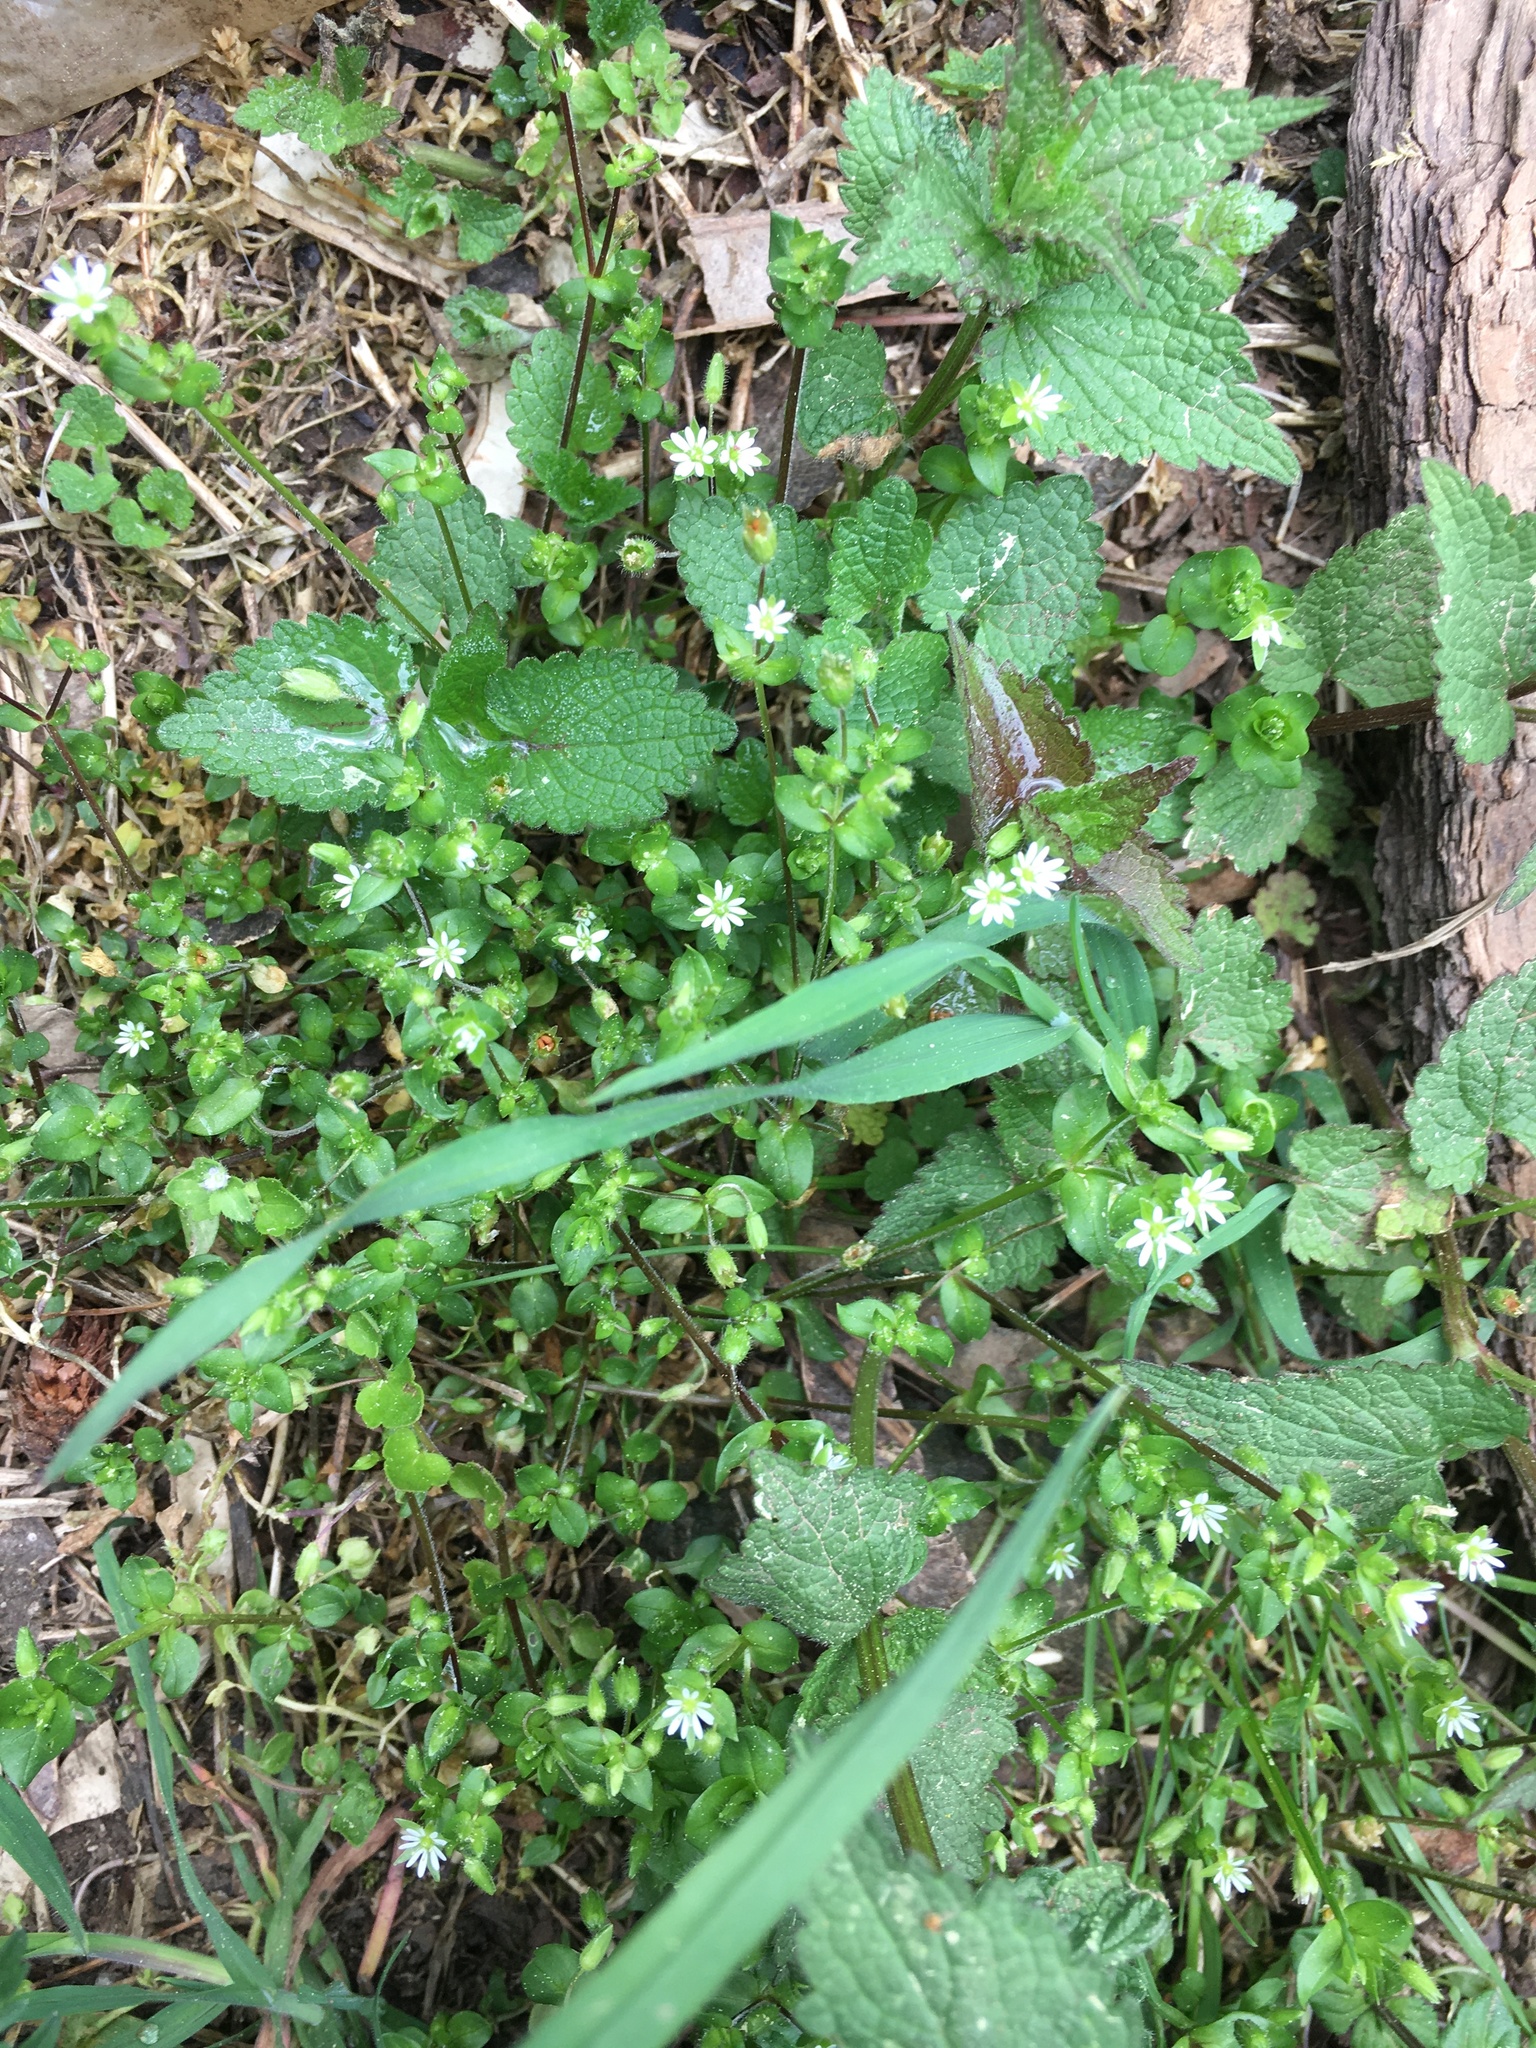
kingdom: Plantae
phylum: Tracheophyta
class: Magnoliopsida
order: Caryophyllales
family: Caryophyllaceae
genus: Stellaria
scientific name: Stellaria media
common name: Common chickweed
